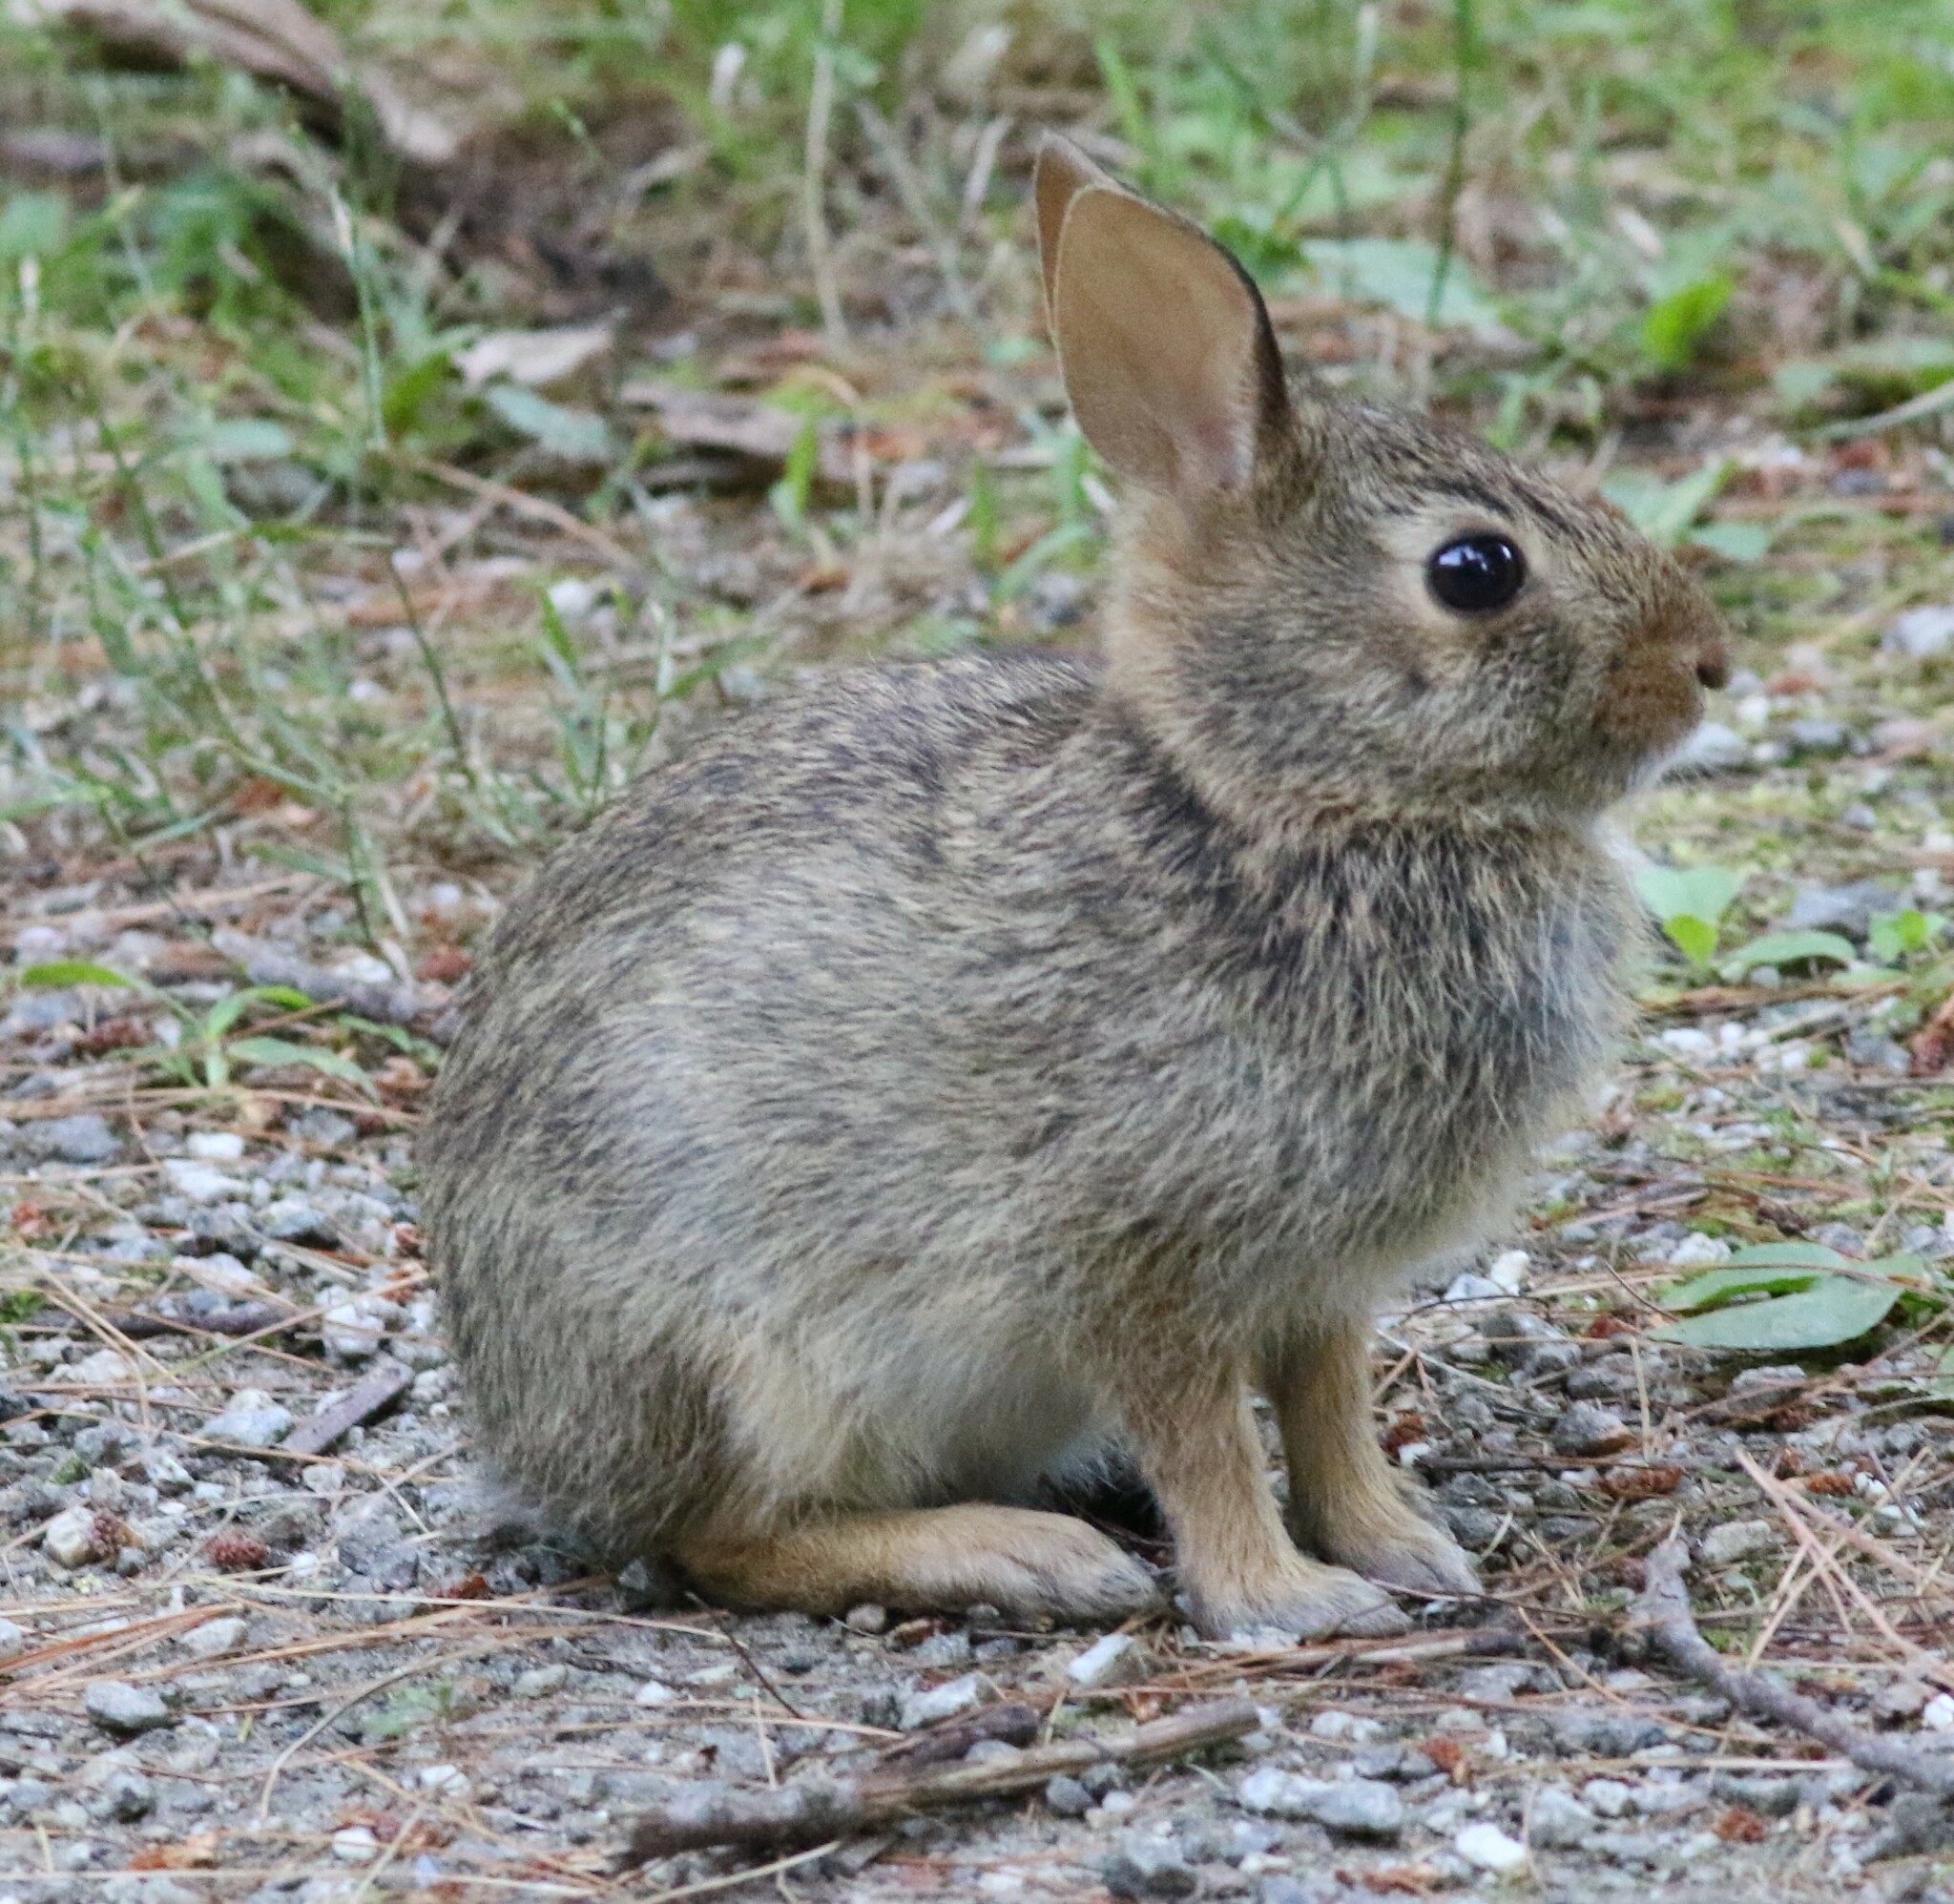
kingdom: Animalia
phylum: Chordata
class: Mammalia
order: Lagomorpha
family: Leporidae
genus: Sylvilagus
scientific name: Sylvilagus floridanus
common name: Eastern cottontail
